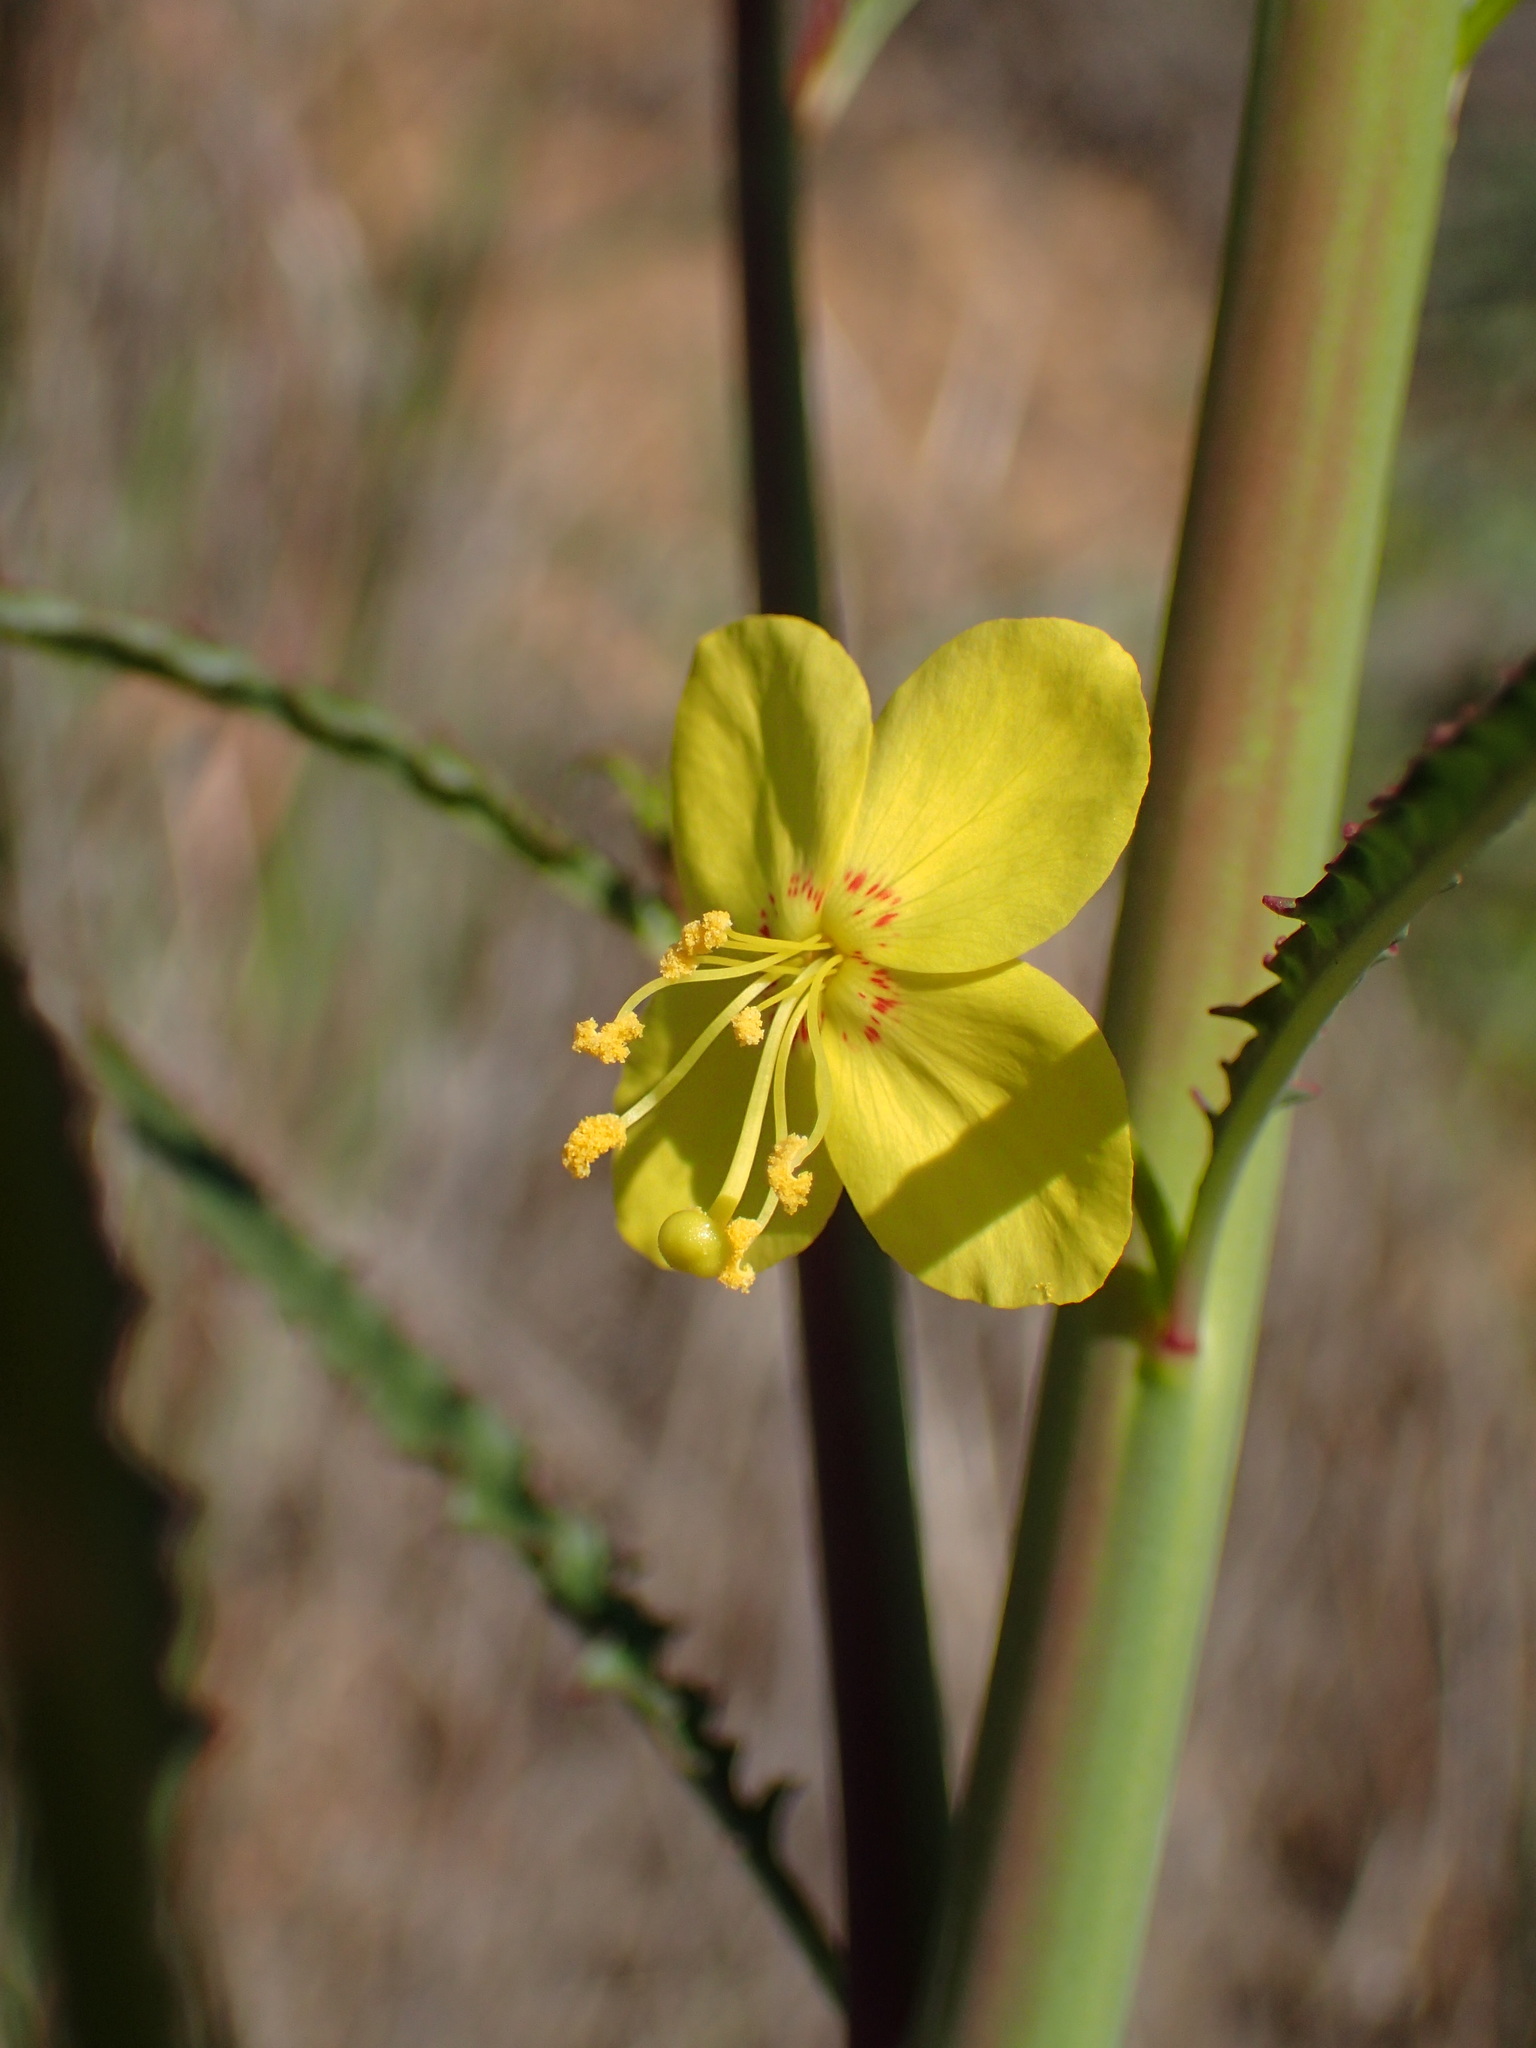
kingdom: Plantae
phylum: Tracheophyta
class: Magnoliopsida
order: Myrtales
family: Onagraceae
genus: Eulobus
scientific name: Eulobus californicus
